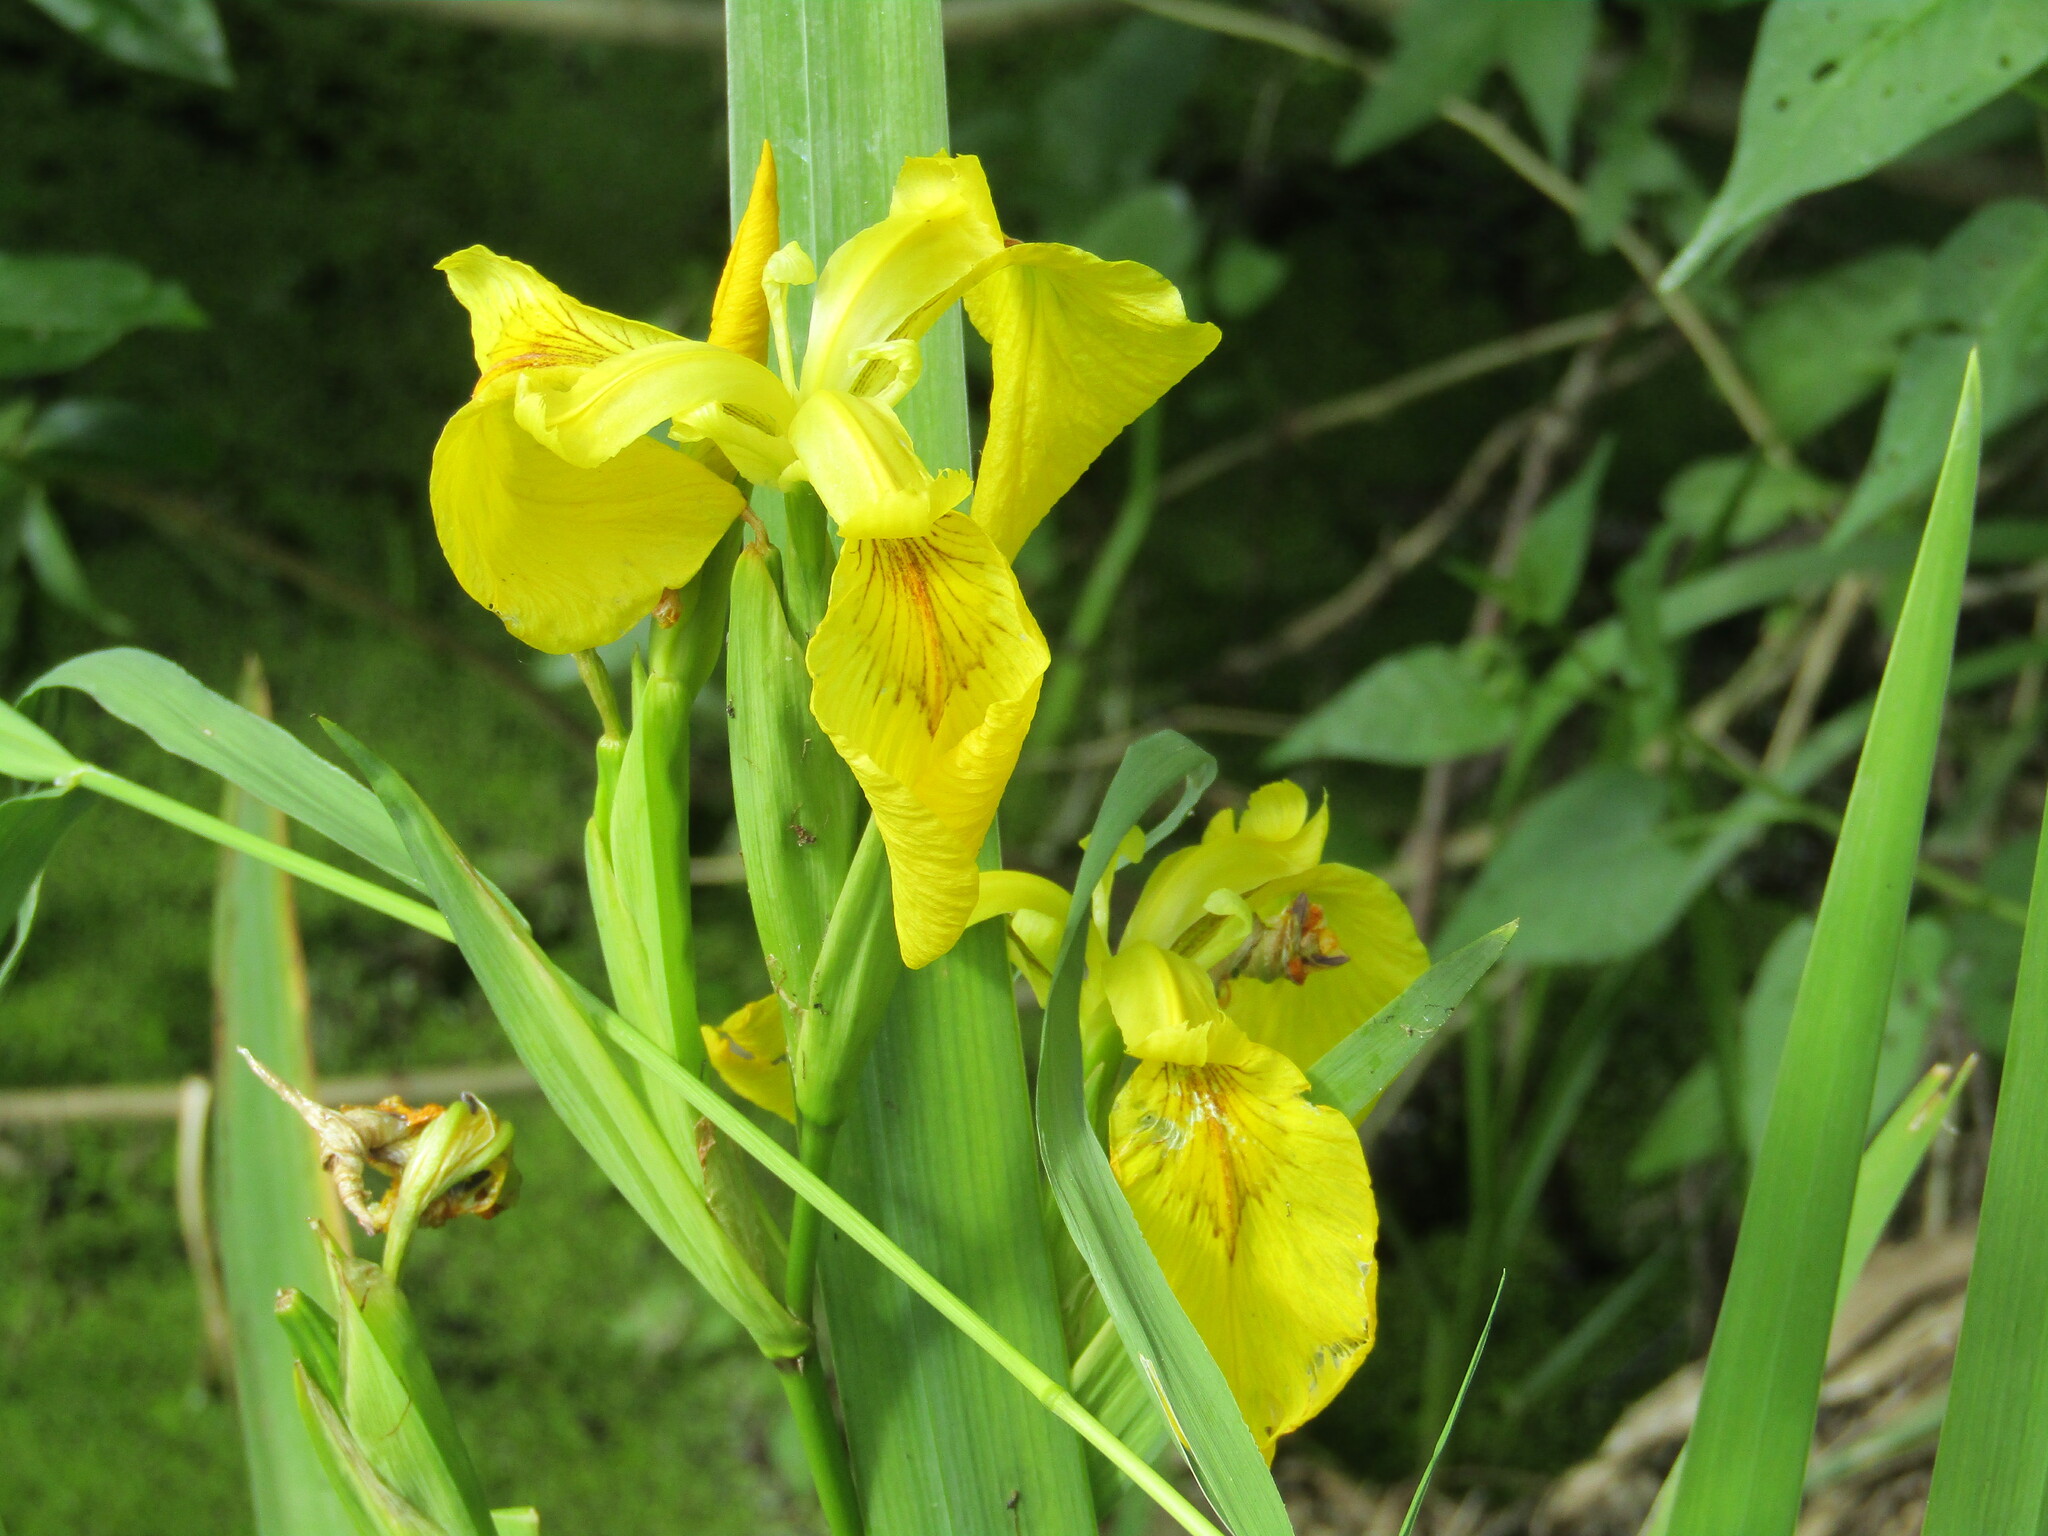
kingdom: Plantae
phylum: Tracheophyta
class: Liliopsida
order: Asparagales
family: Iridaceae
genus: Iris
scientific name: Iris pseudacorus
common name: Yellow flag
